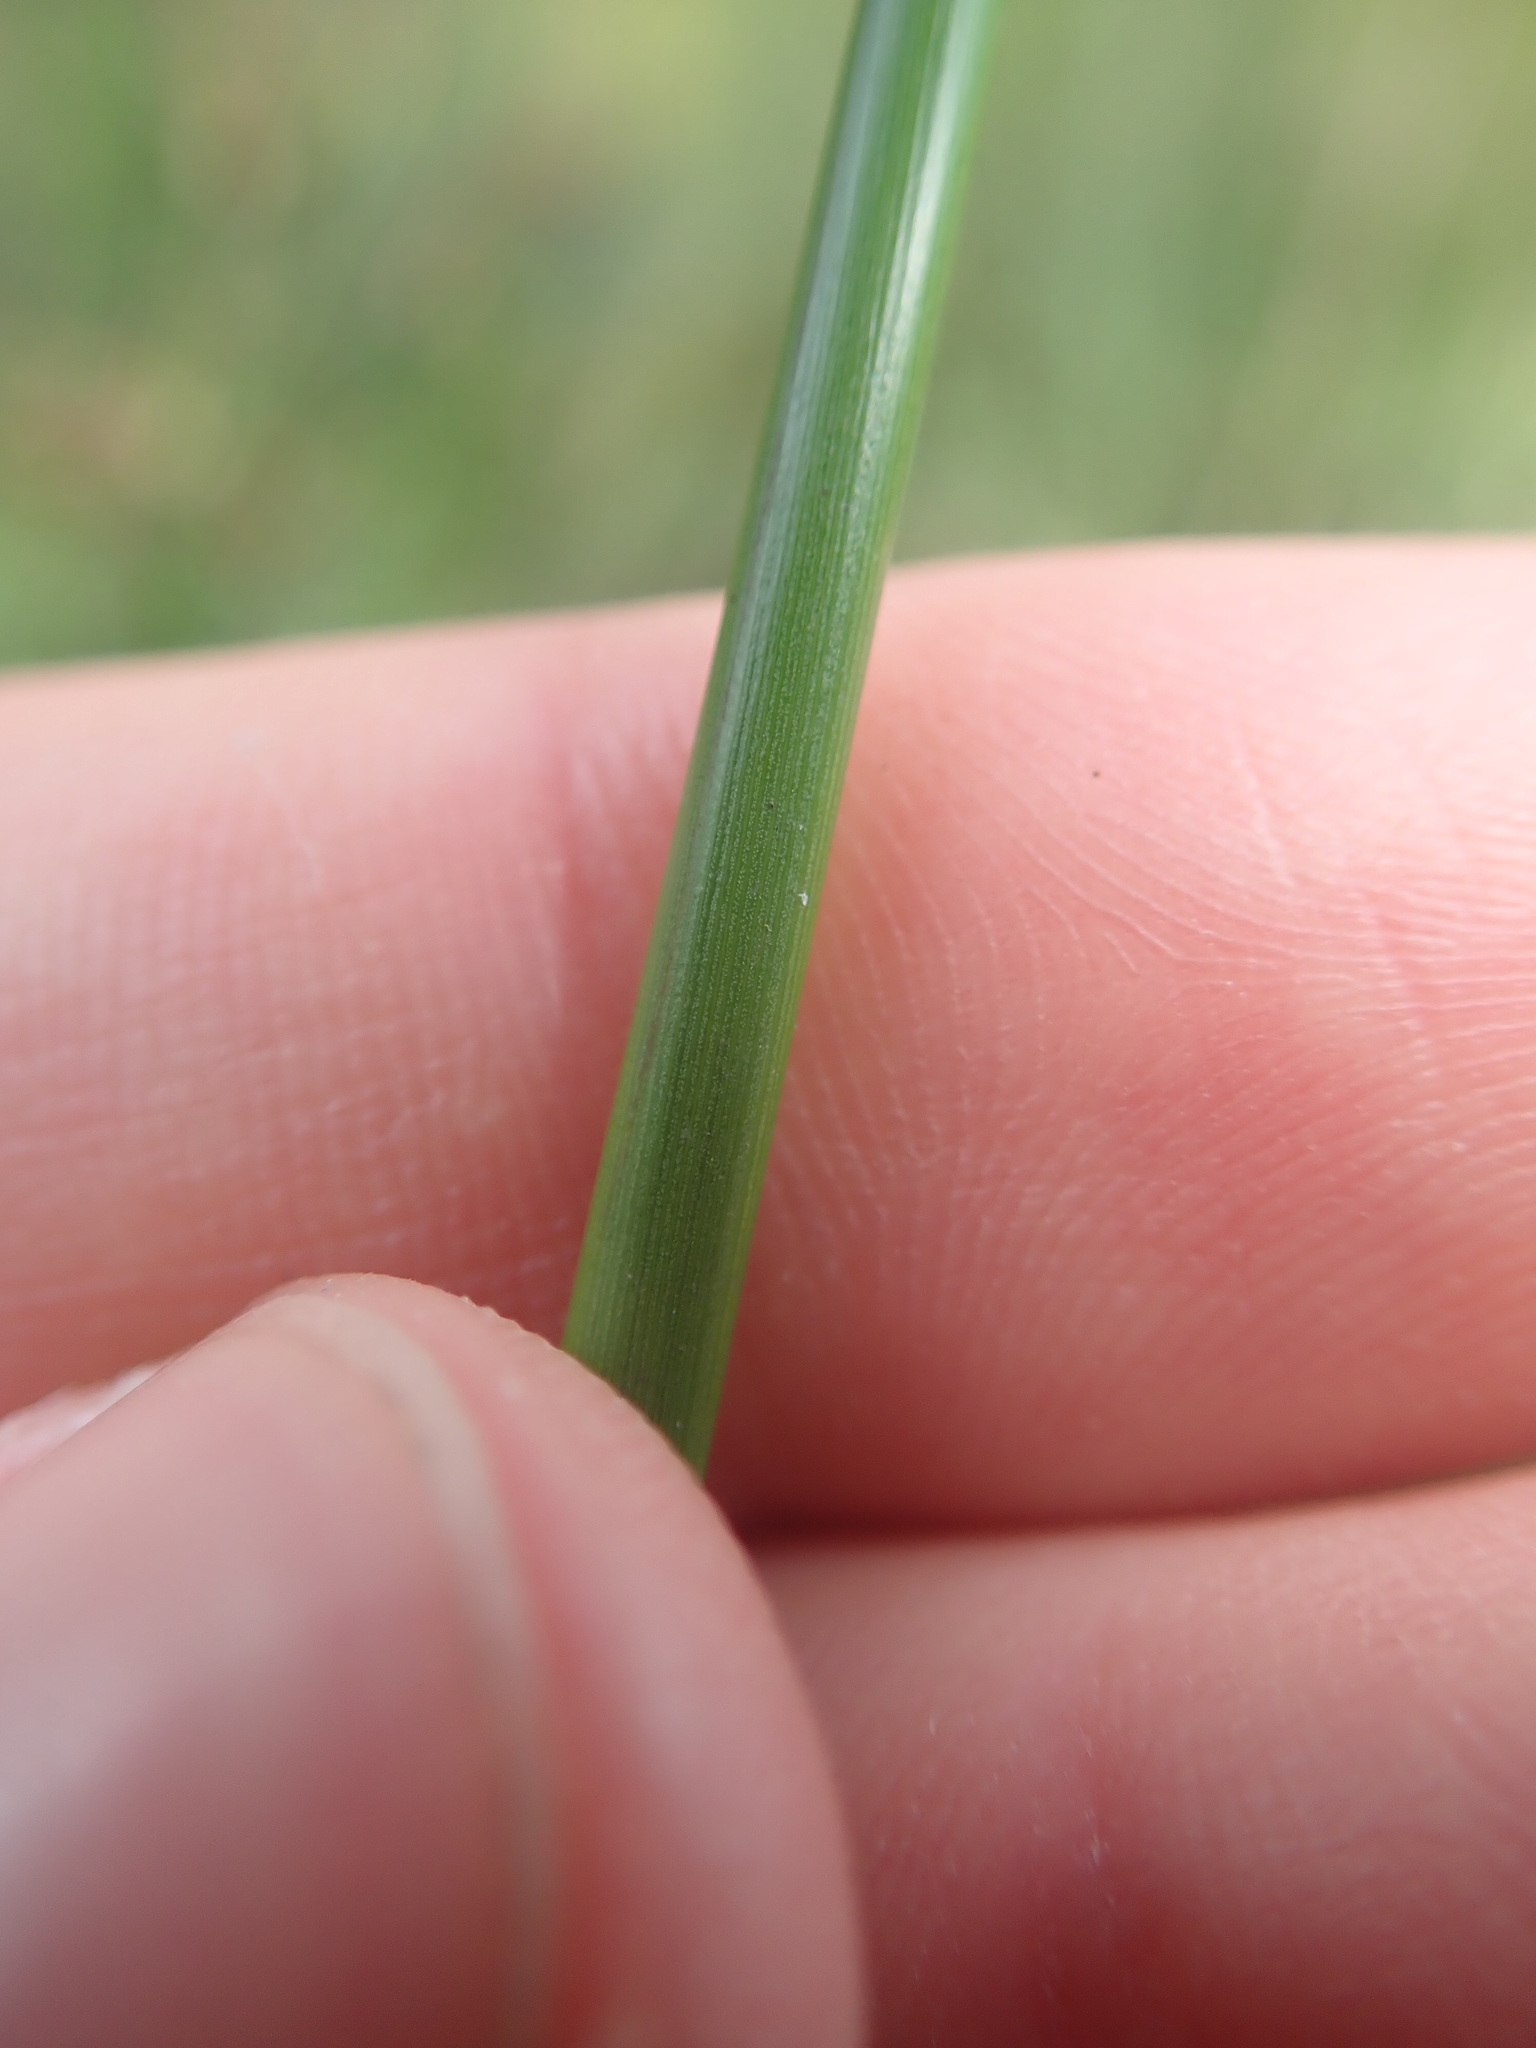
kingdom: Plantae
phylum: Tracheophyta
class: Liliopsida
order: Poales
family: Juncaceae
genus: Juncus
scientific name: Juncus effusus
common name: Soft rush
